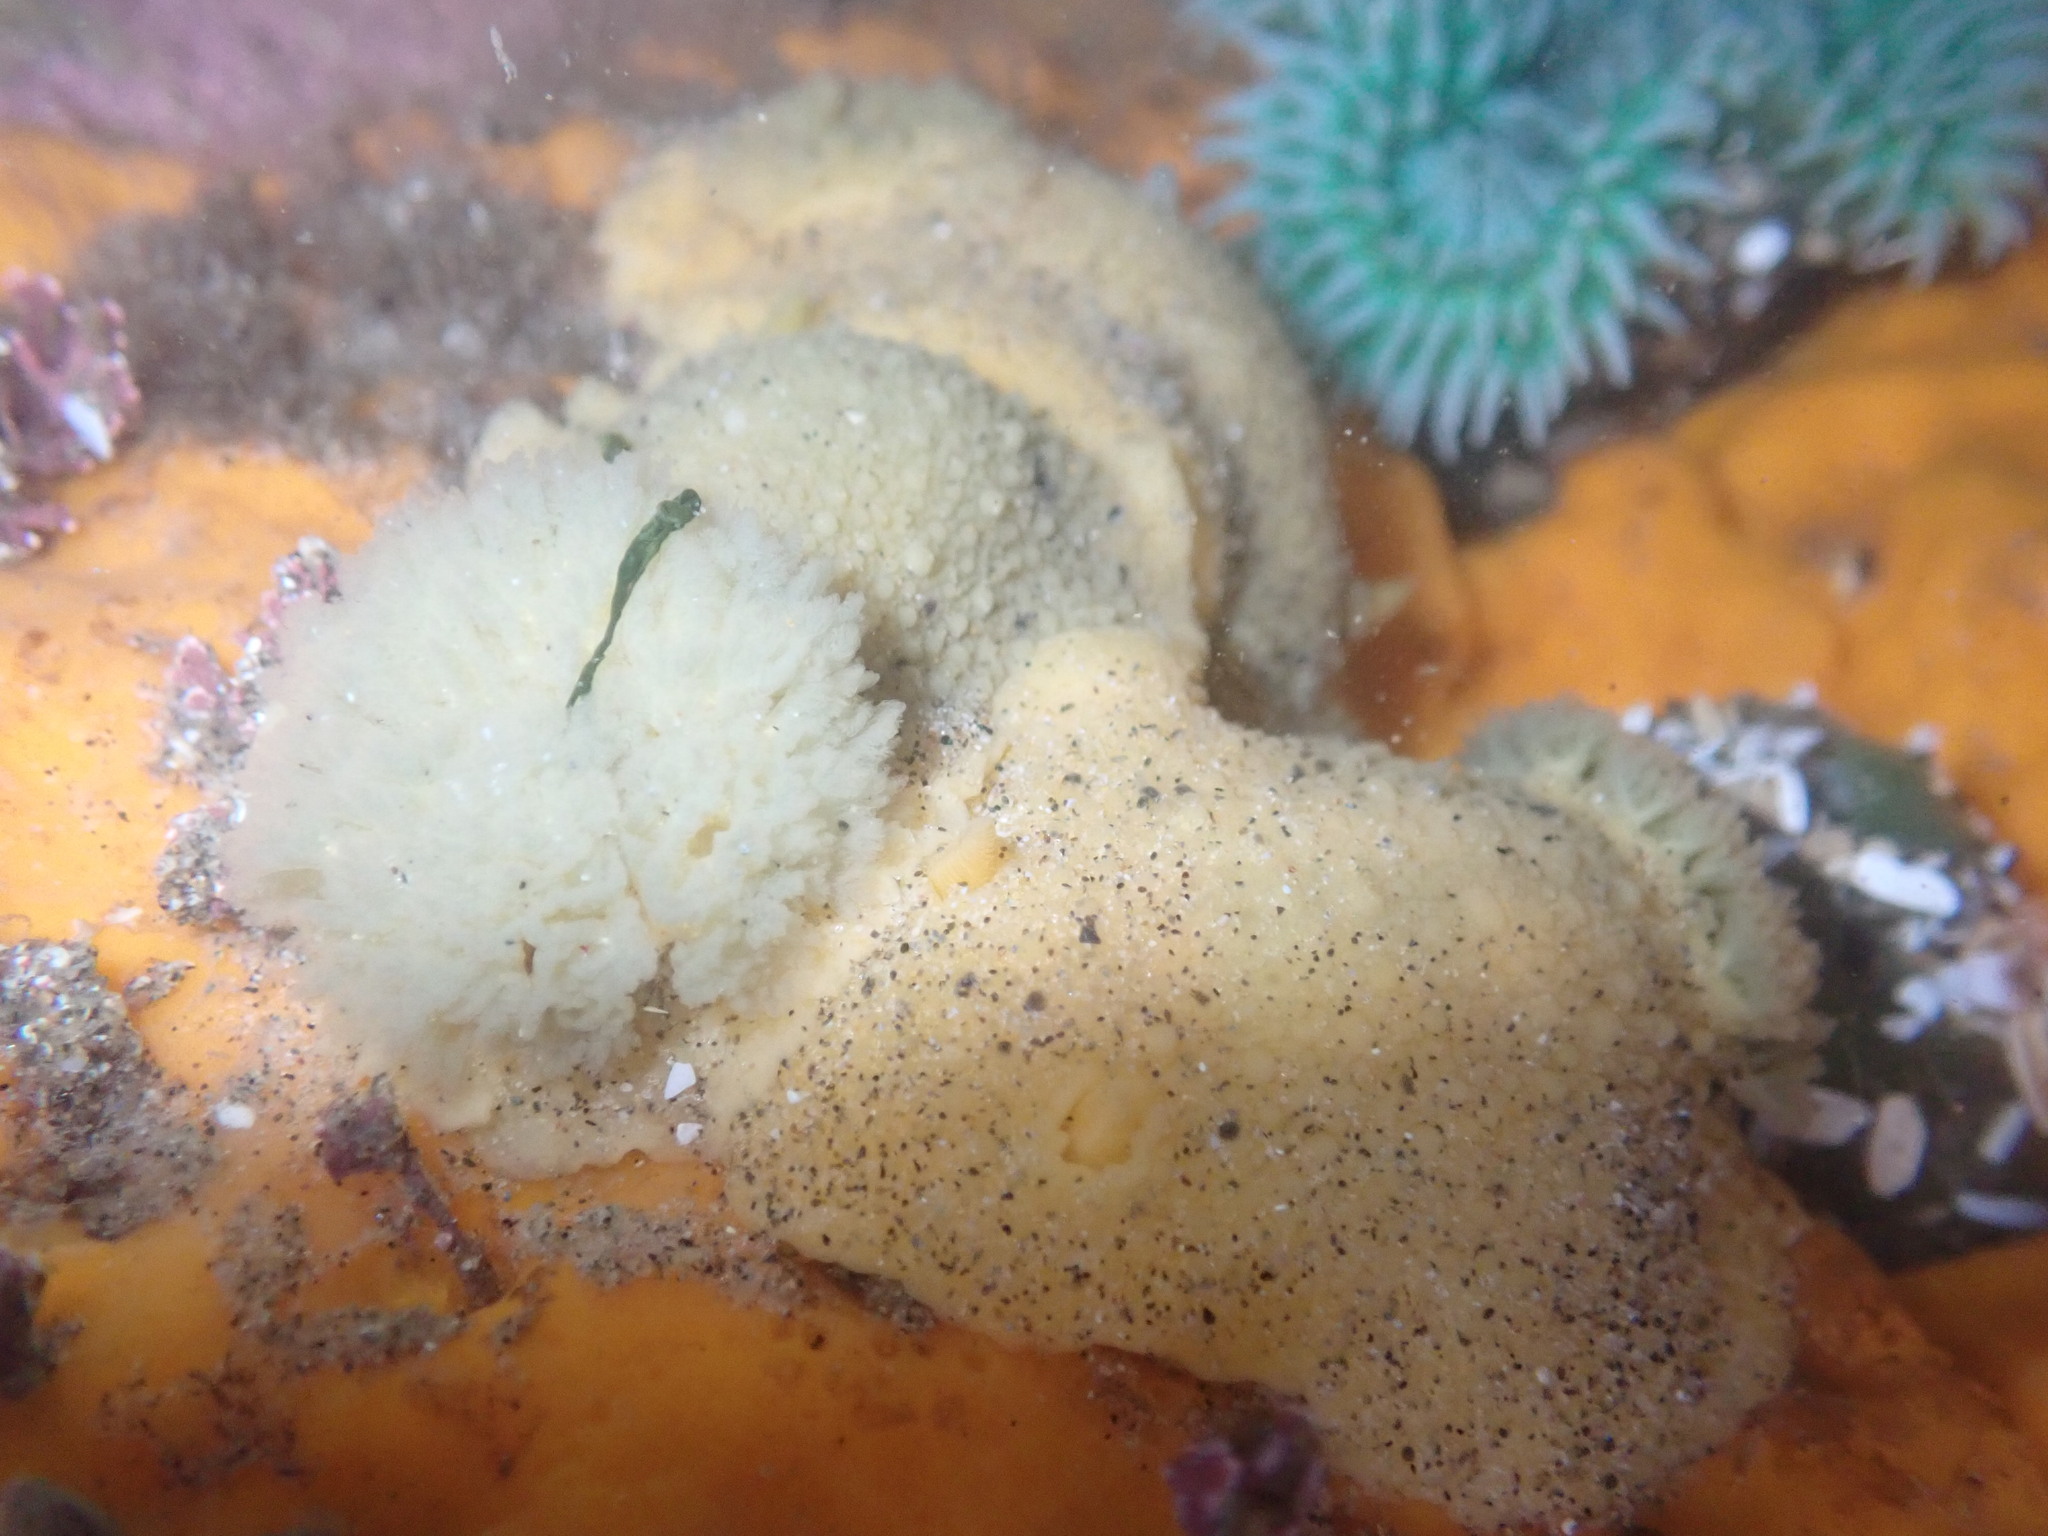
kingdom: Animalia
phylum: Mollusca
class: Gastropoda
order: Nudibranchia
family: Dorididae
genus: Doris
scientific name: Doris montereyensis
